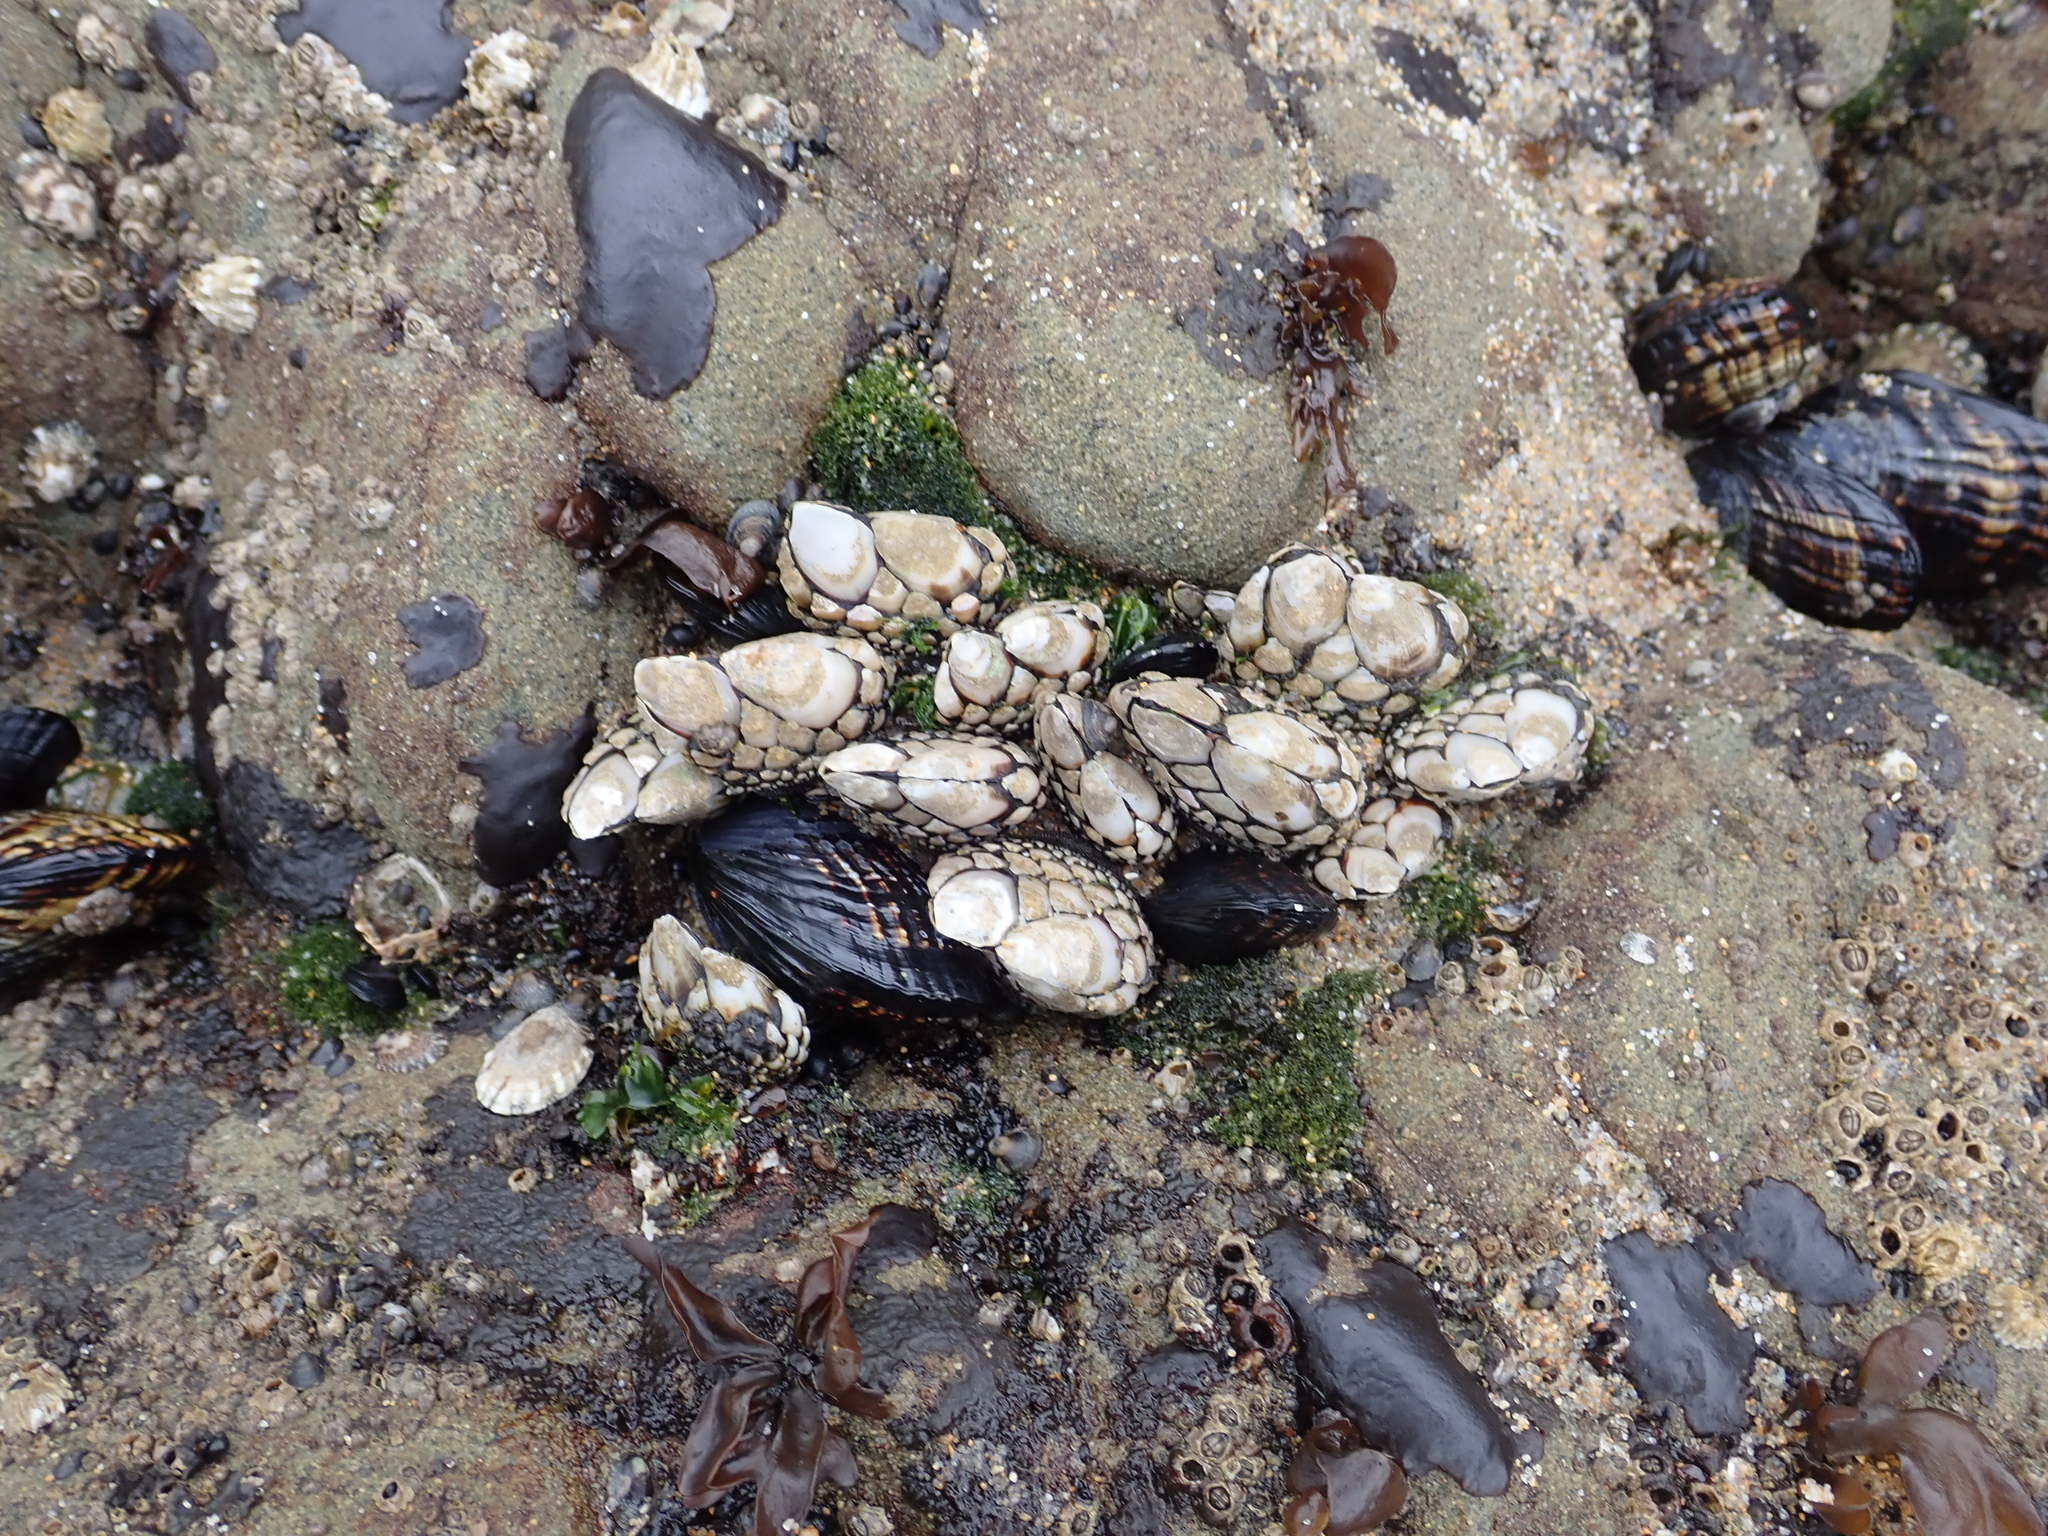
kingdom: Animalia
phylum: Arthropoda
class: Maxillopoda
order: Pedunculata
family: Pollicipedidae
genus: Pollicipes
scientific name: Pollicipes polymerus
